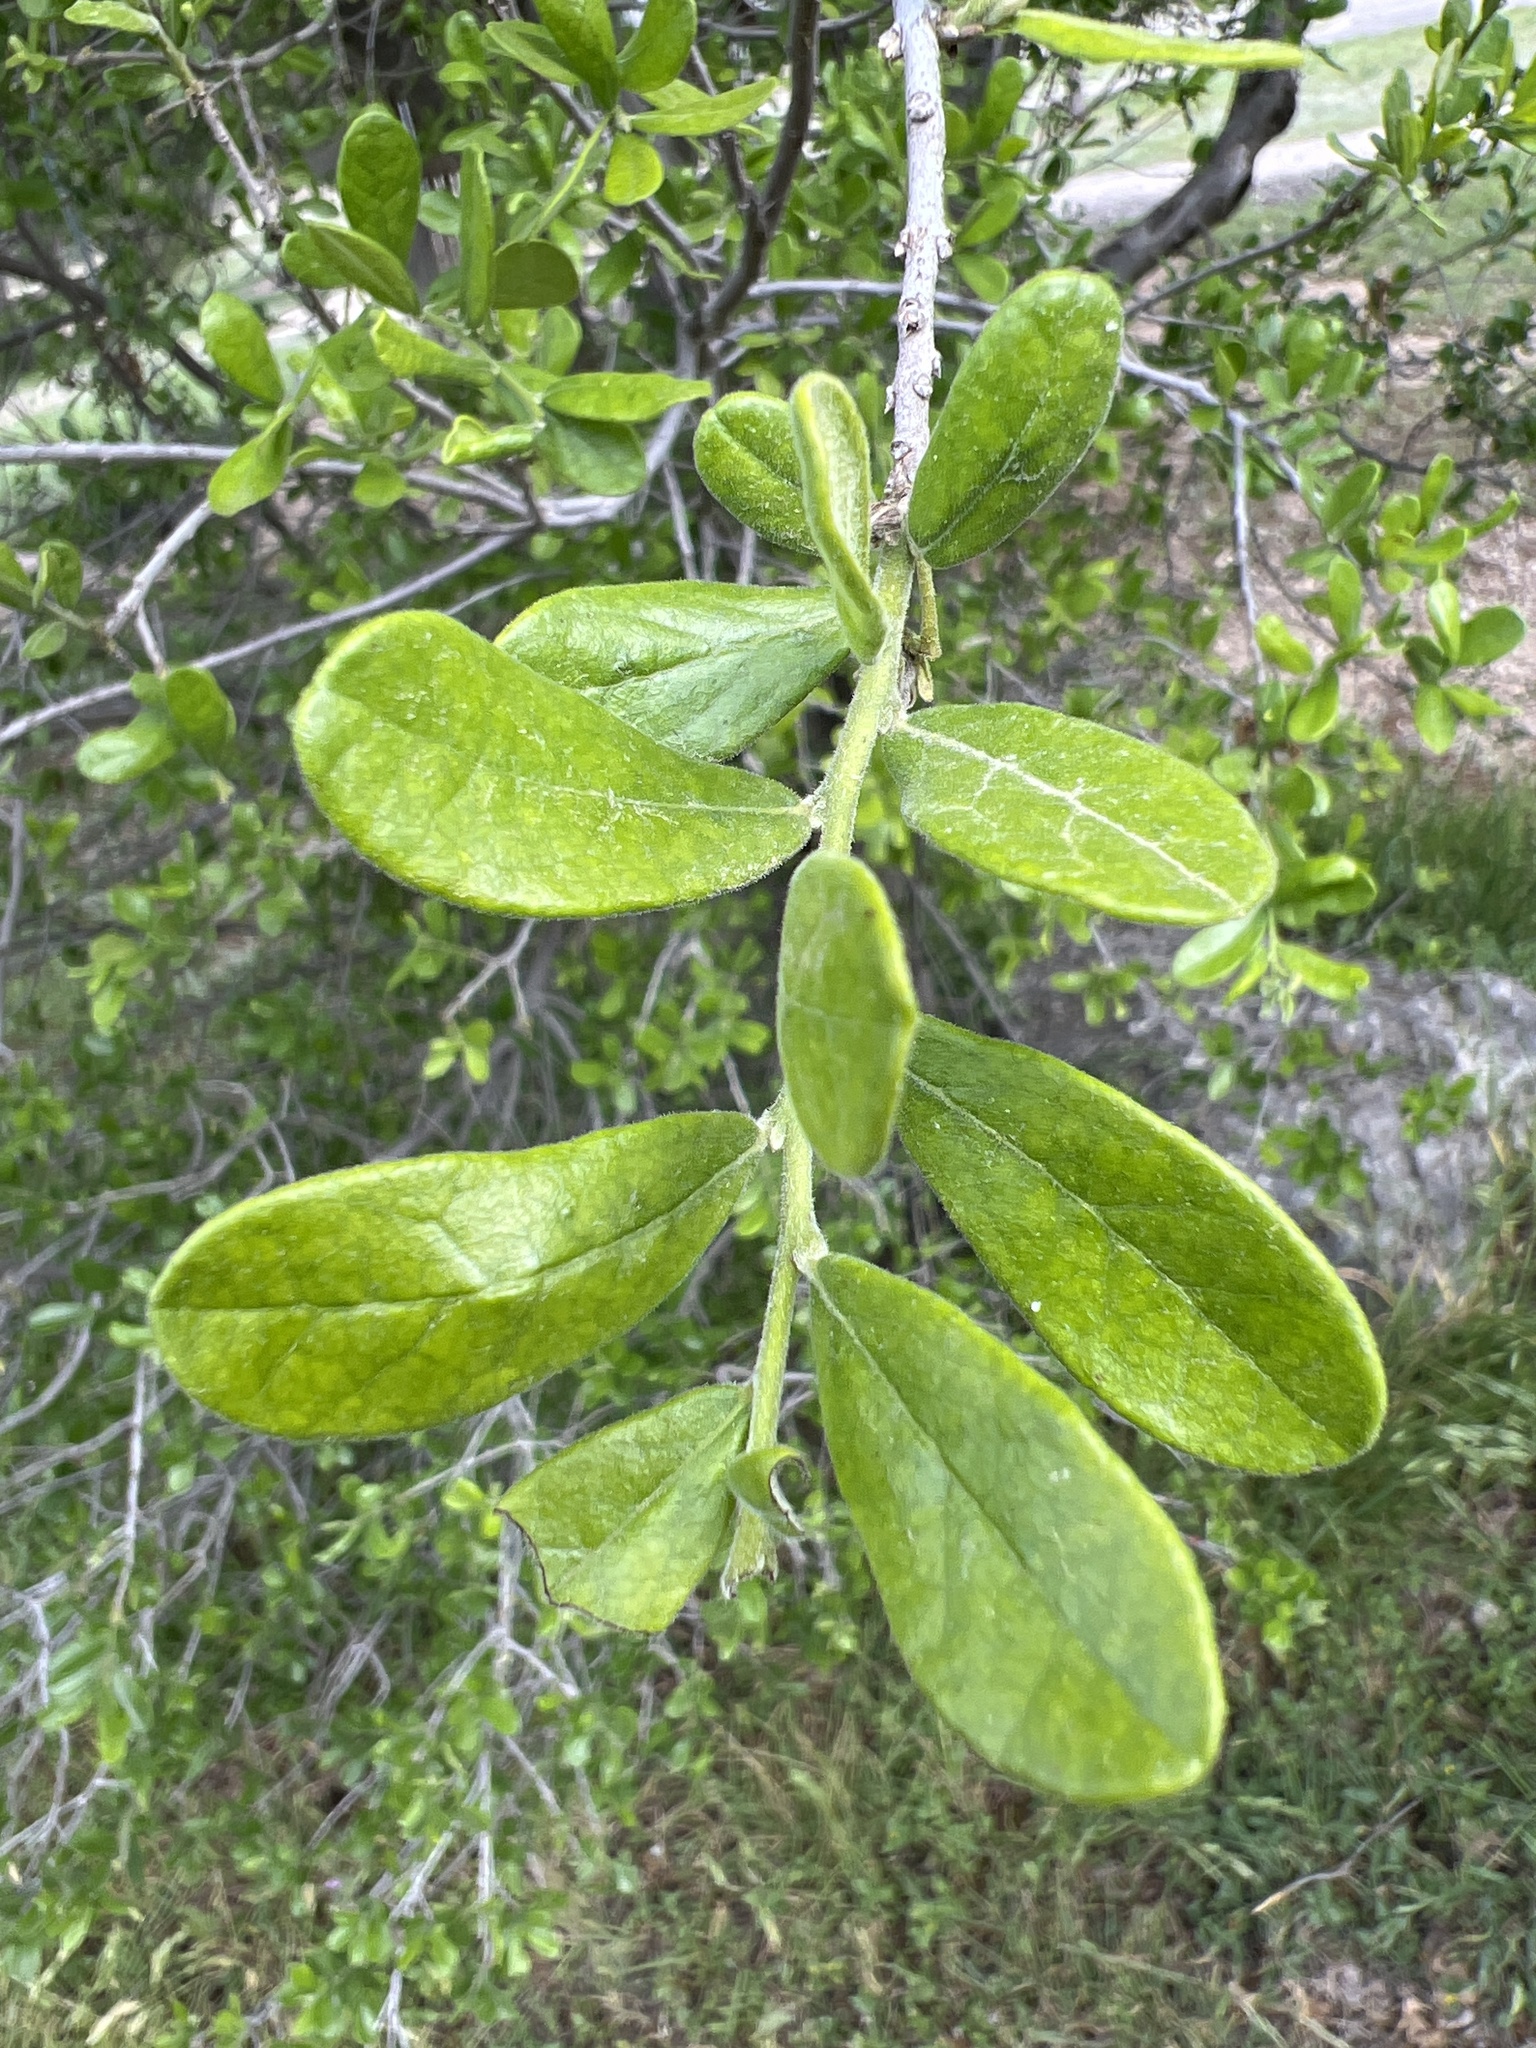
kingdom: Plantae
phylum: Tracheophyta
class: Magnoliopsida
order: Ericales
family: Ebenaceae
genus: Diospyros
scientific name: Diospyros texana
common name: Texas persimmon
